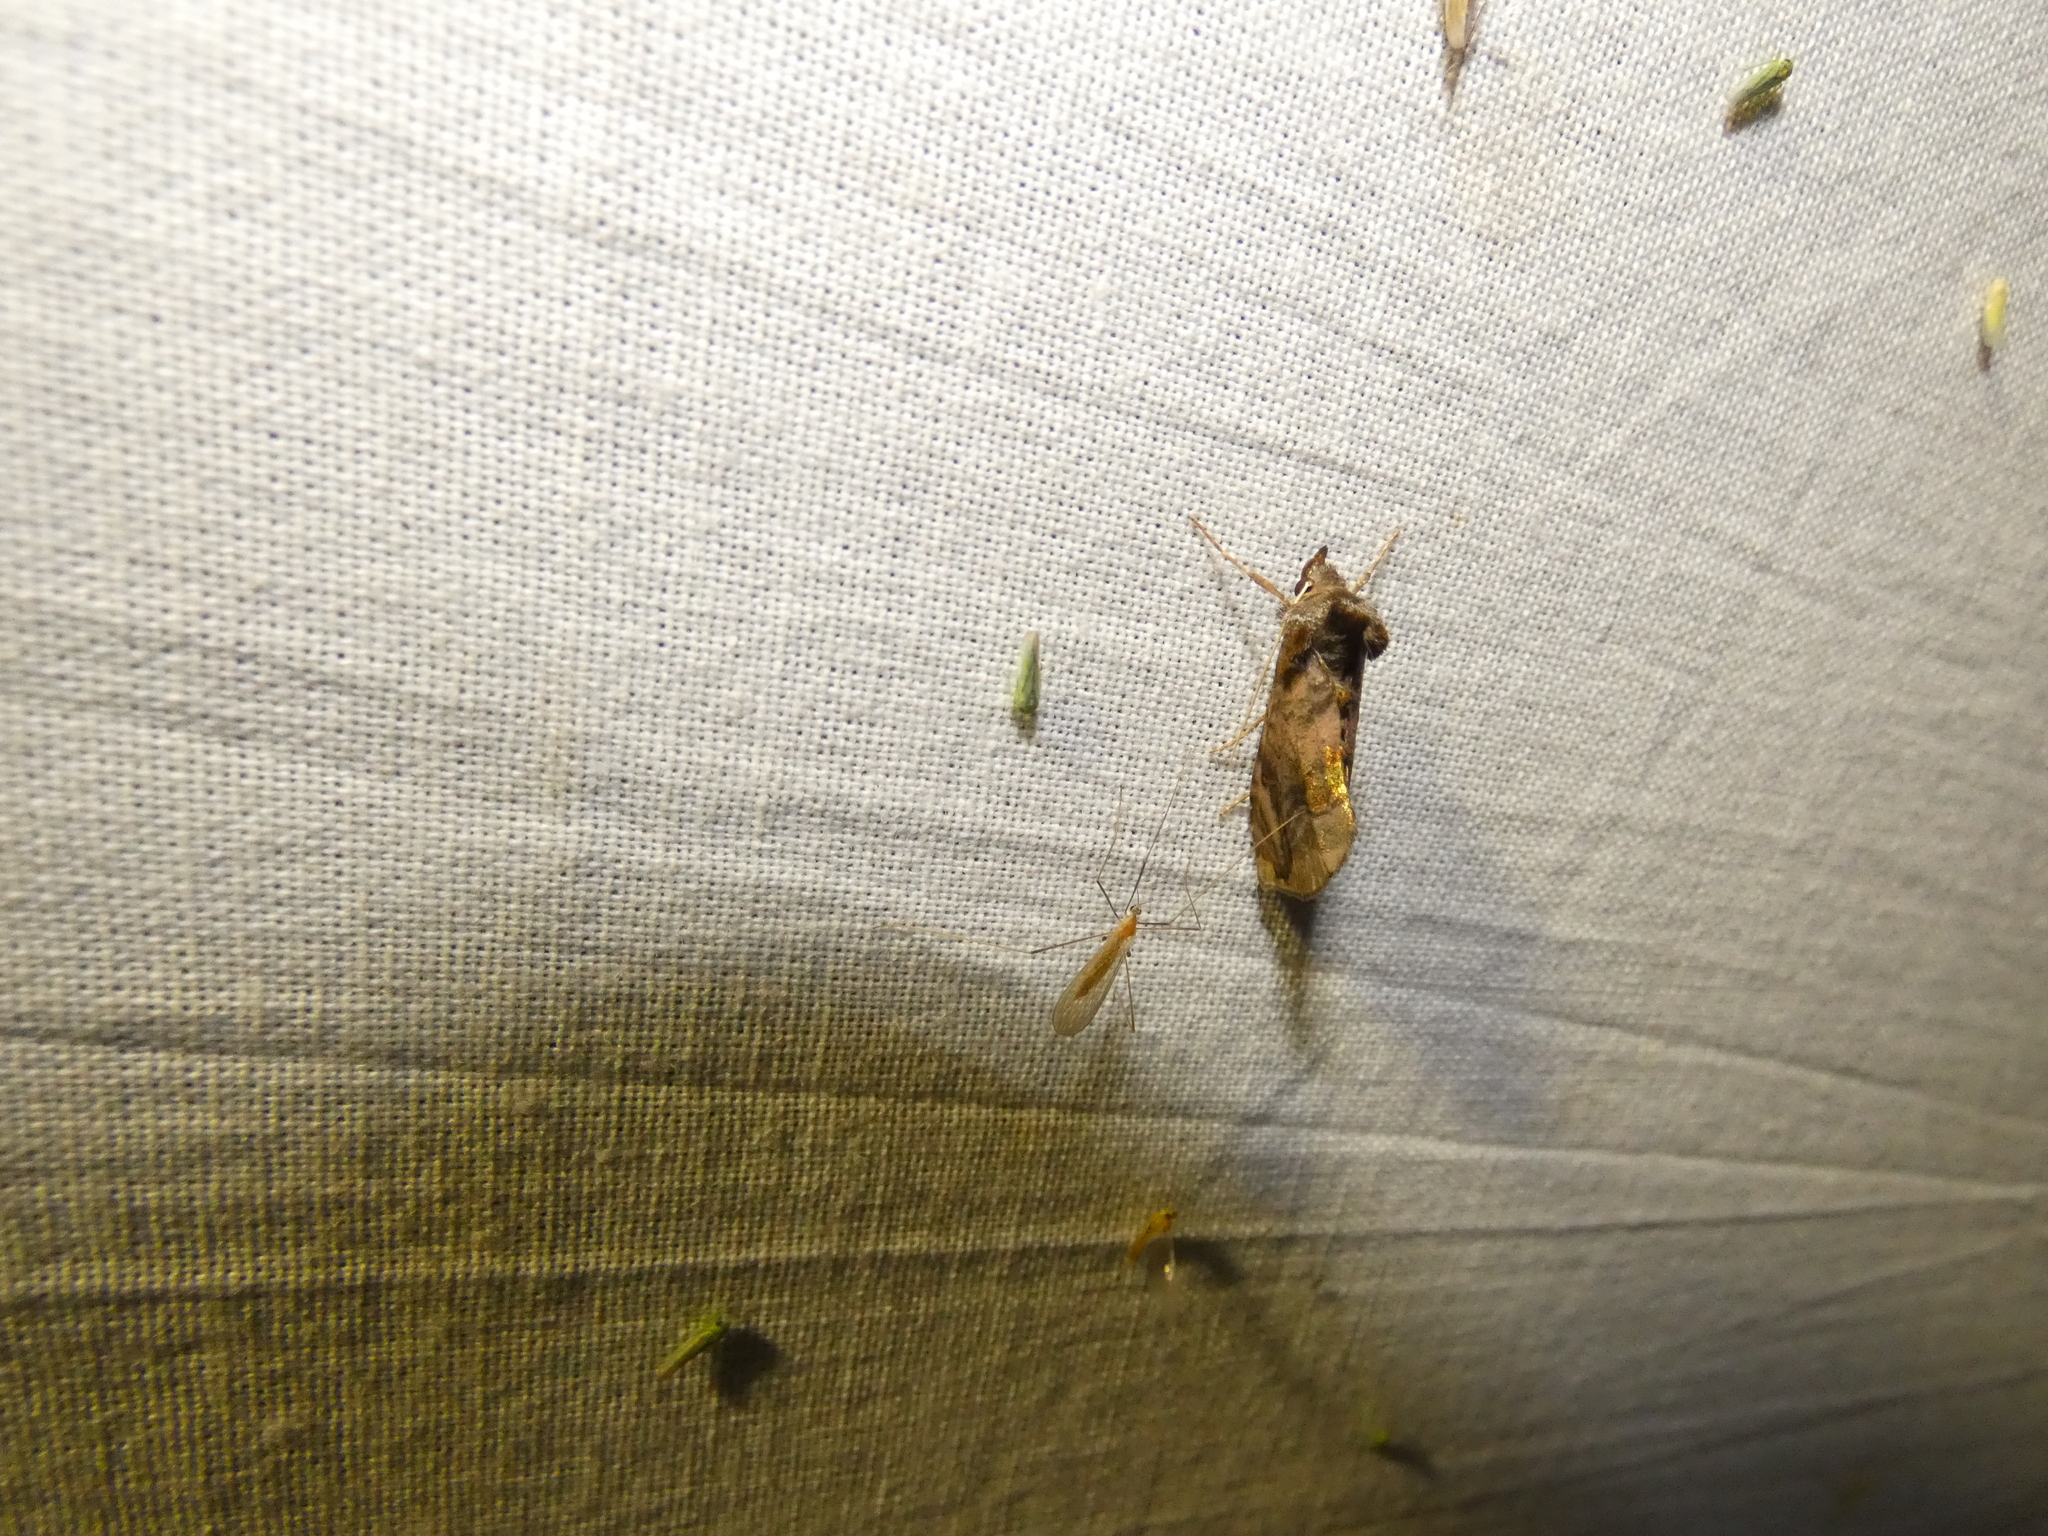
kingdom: Animalia
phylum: Arthropoda
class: Insecta
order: Lepidoptera
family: Noctuidae
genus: Lamprotes
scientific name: Lamprotes caureum
